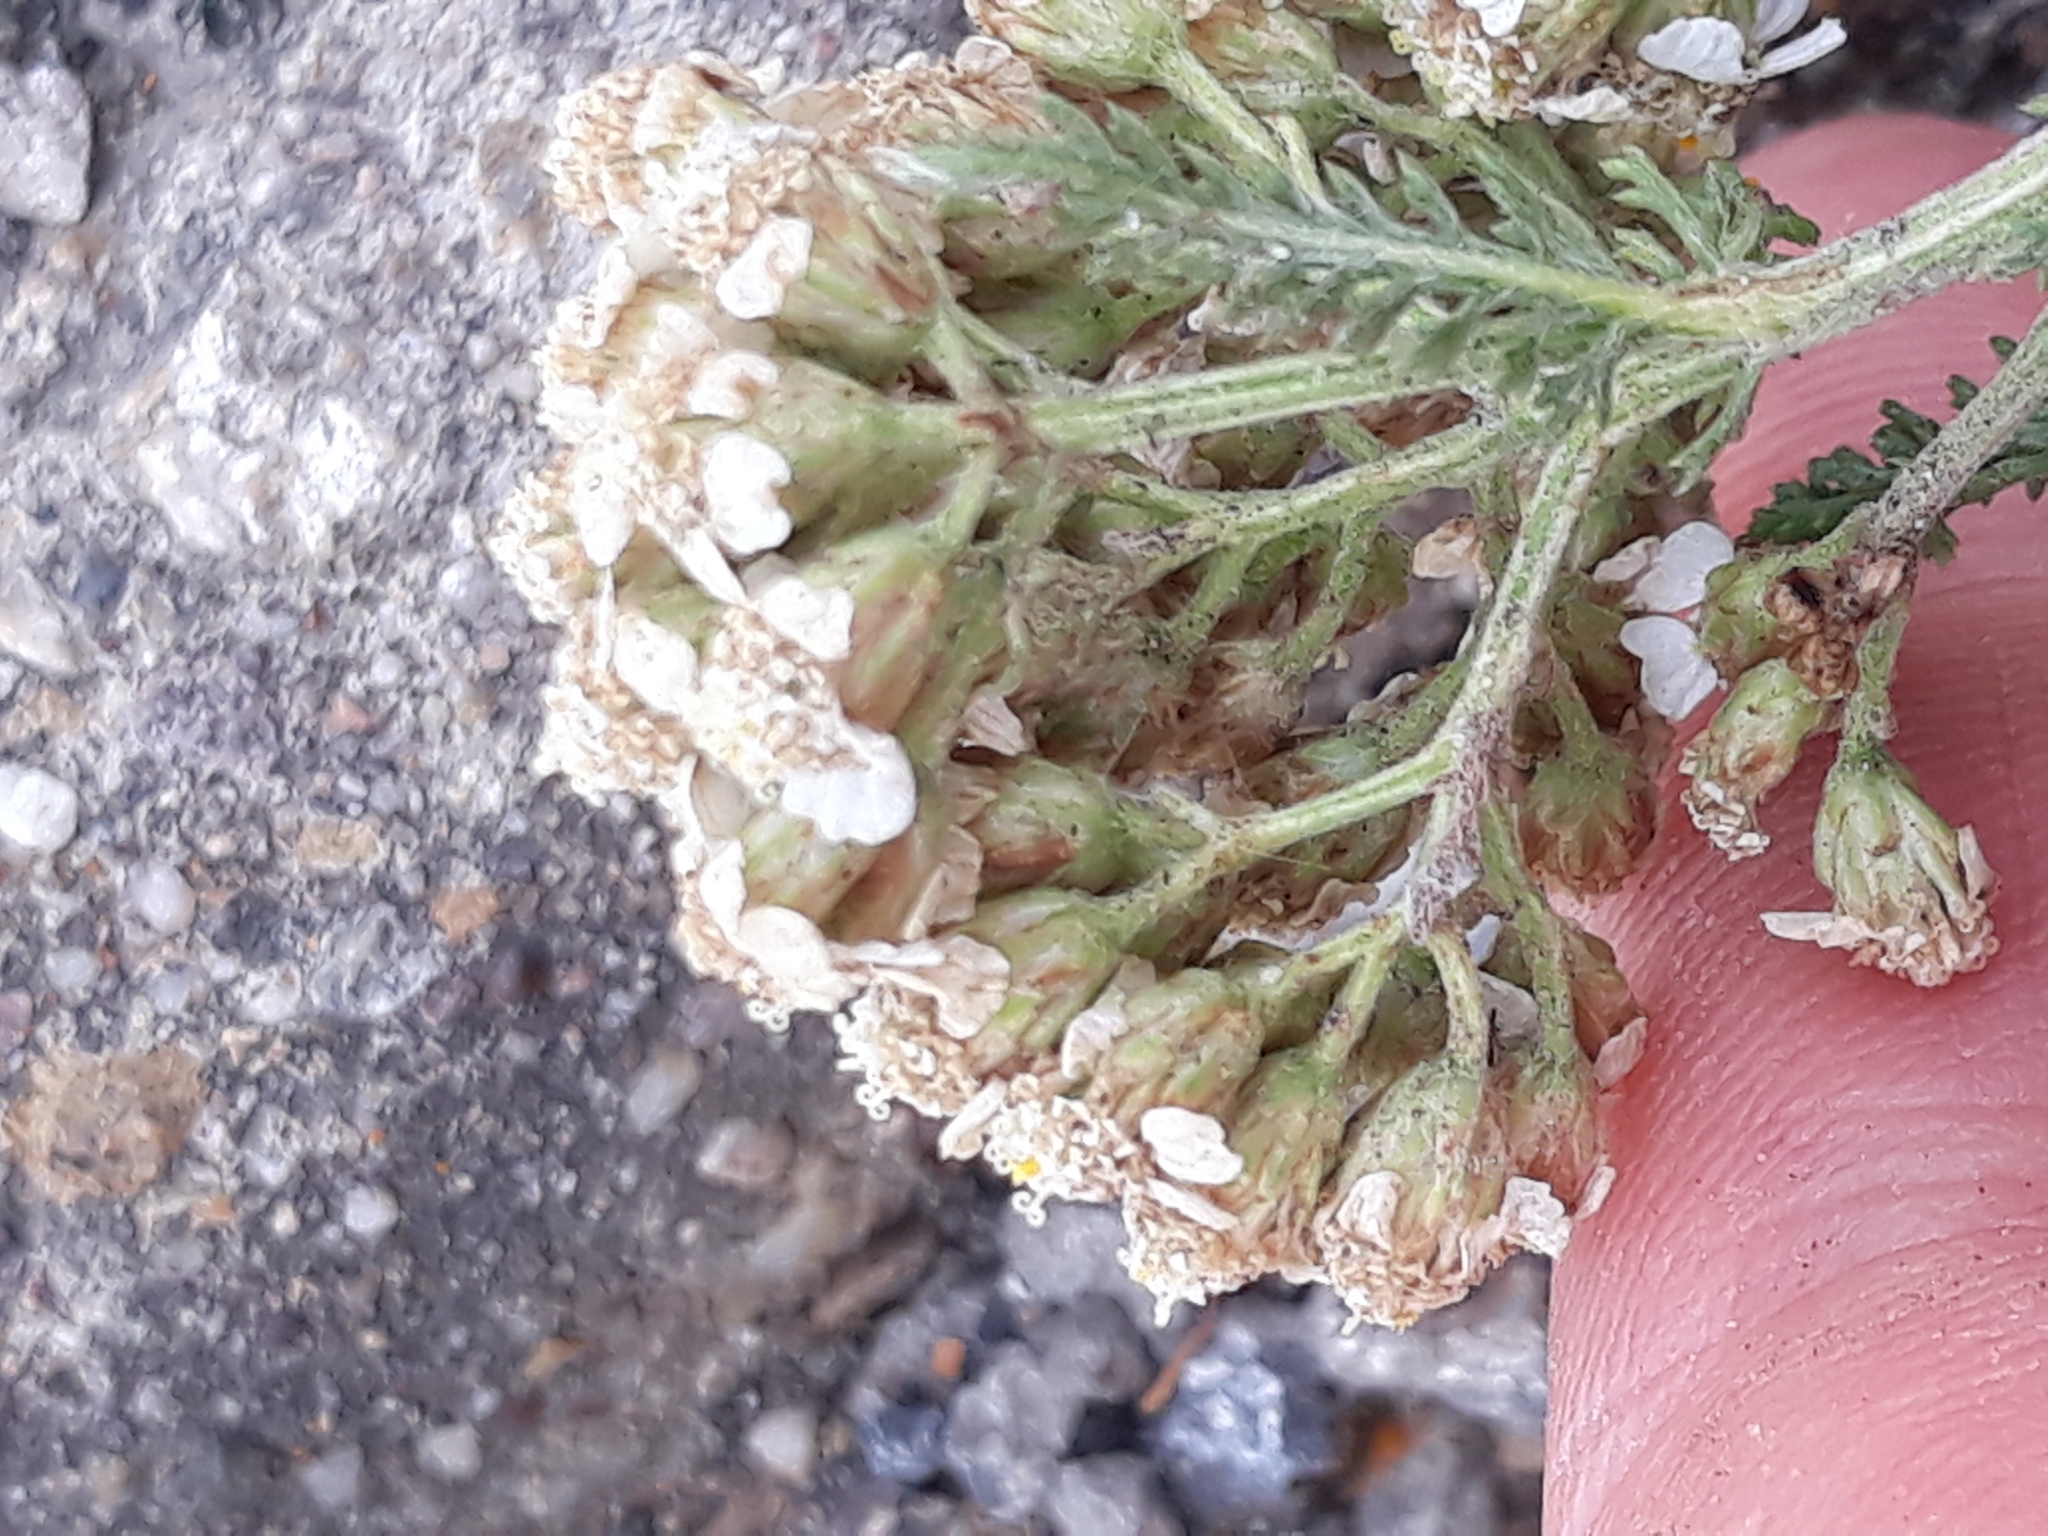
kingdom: Plantae
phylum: Tracheophyta
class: Magnoliopsida
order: Asterales
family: Asteraceae
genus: Achillea
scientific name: Achillea millefolium
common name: Yarrow
